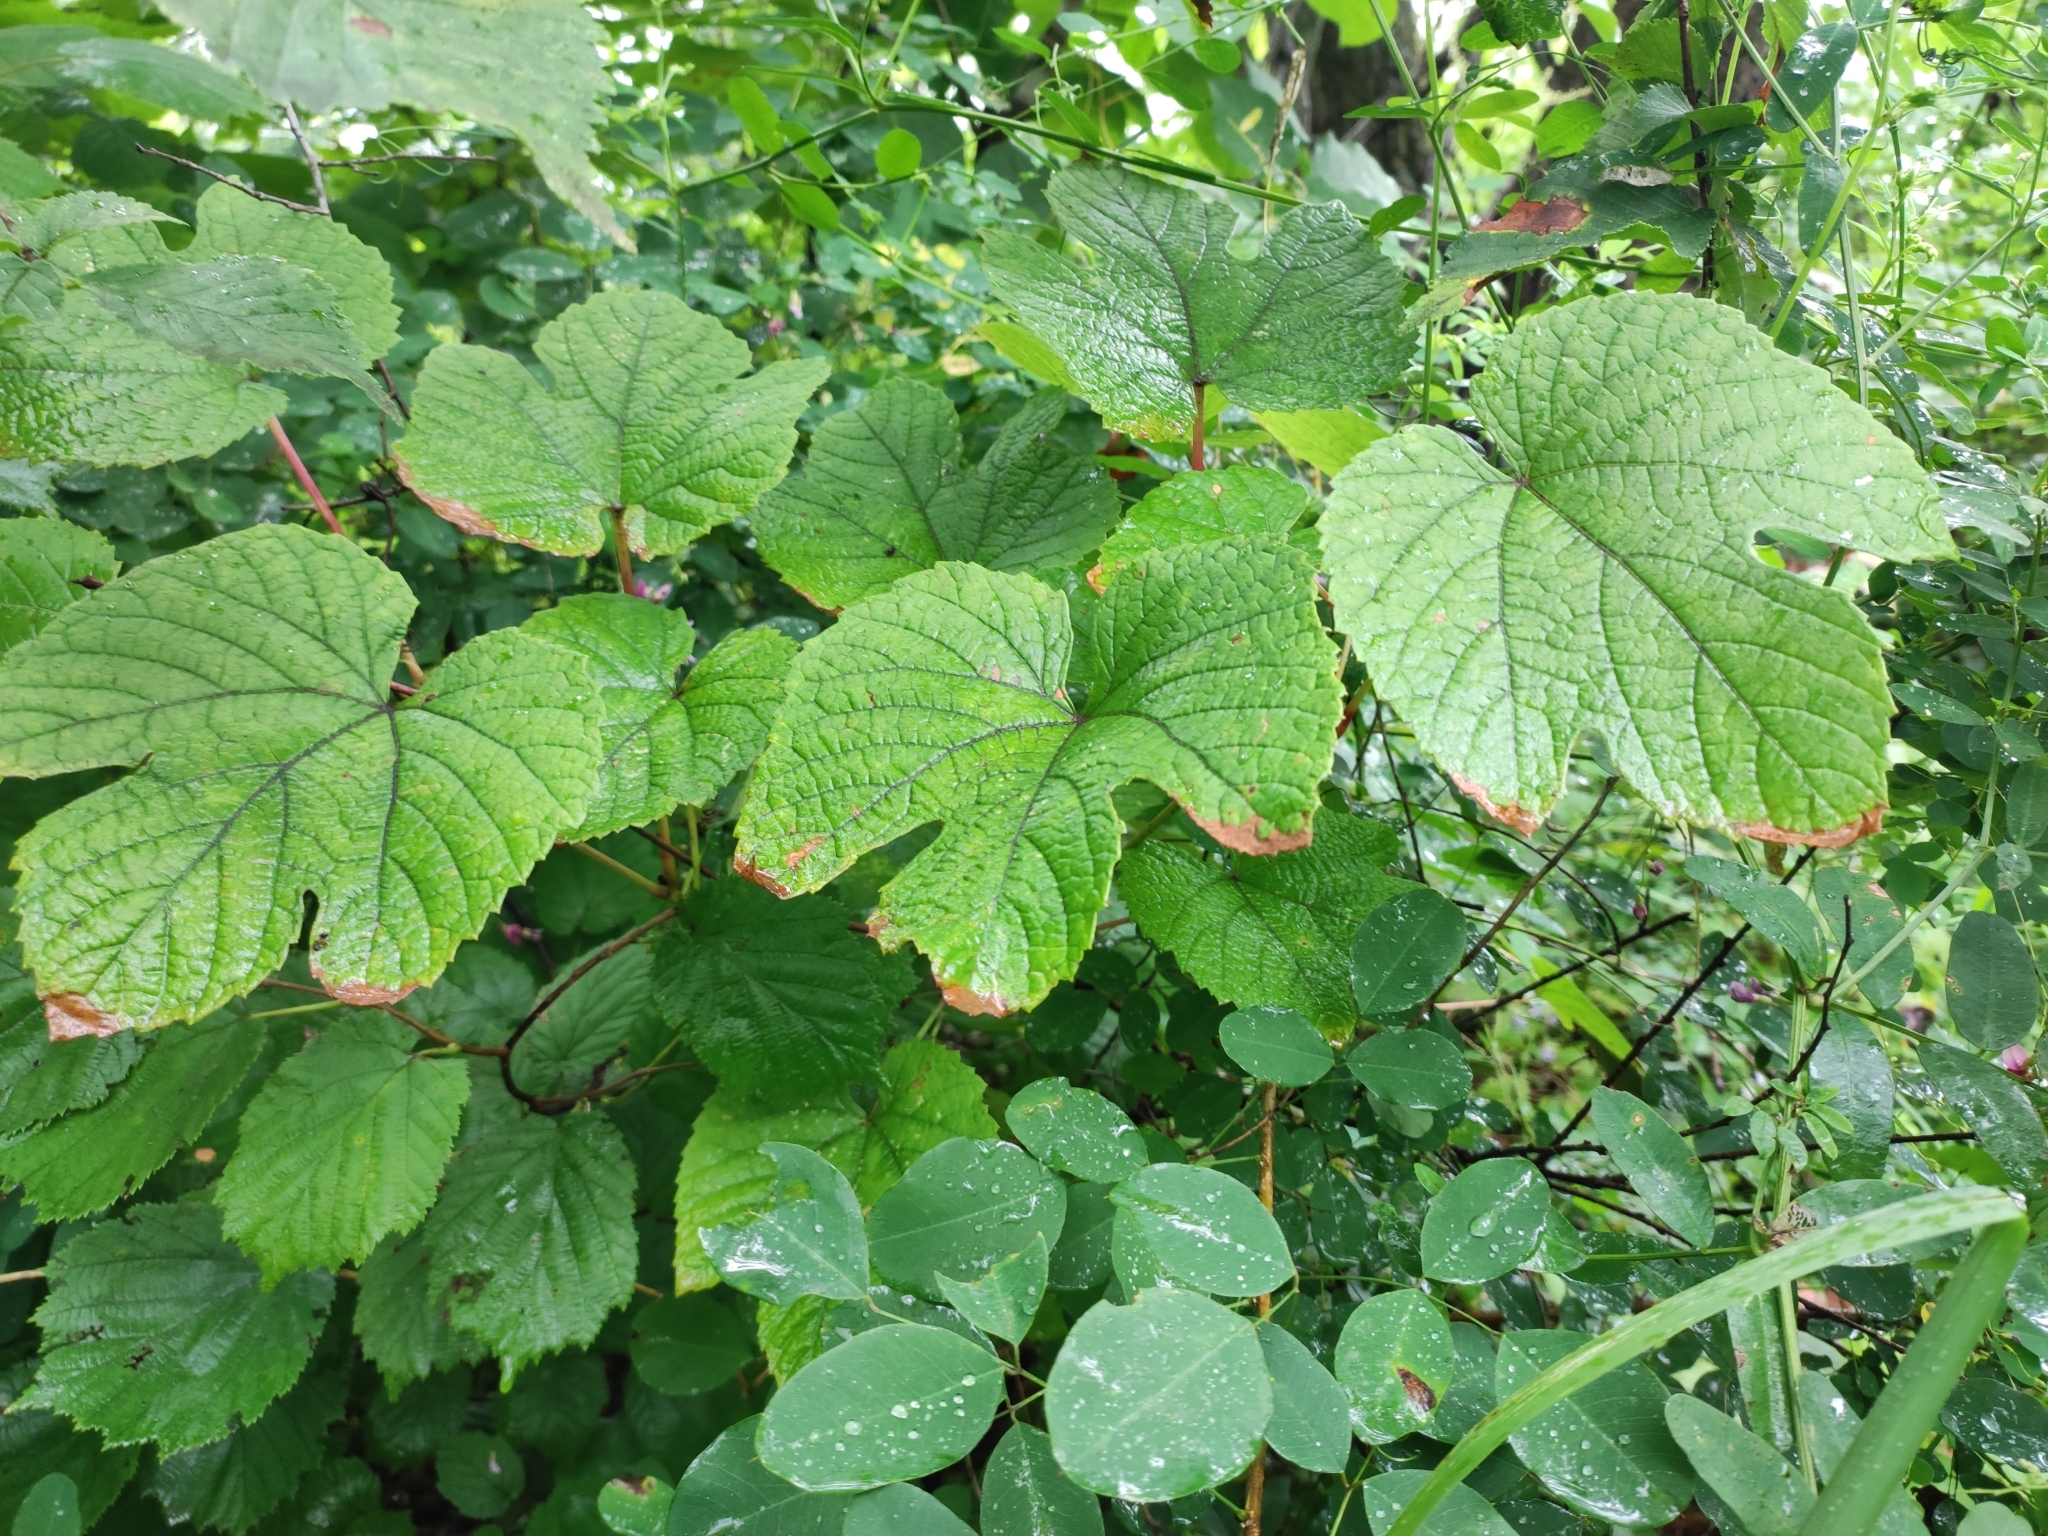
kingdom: Plantae
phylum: Tracheophyta
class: Magnoliopsida
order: Vitales
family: Vitaceae
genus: Vitis
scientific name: Vitis amurensis
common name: Amur grape
